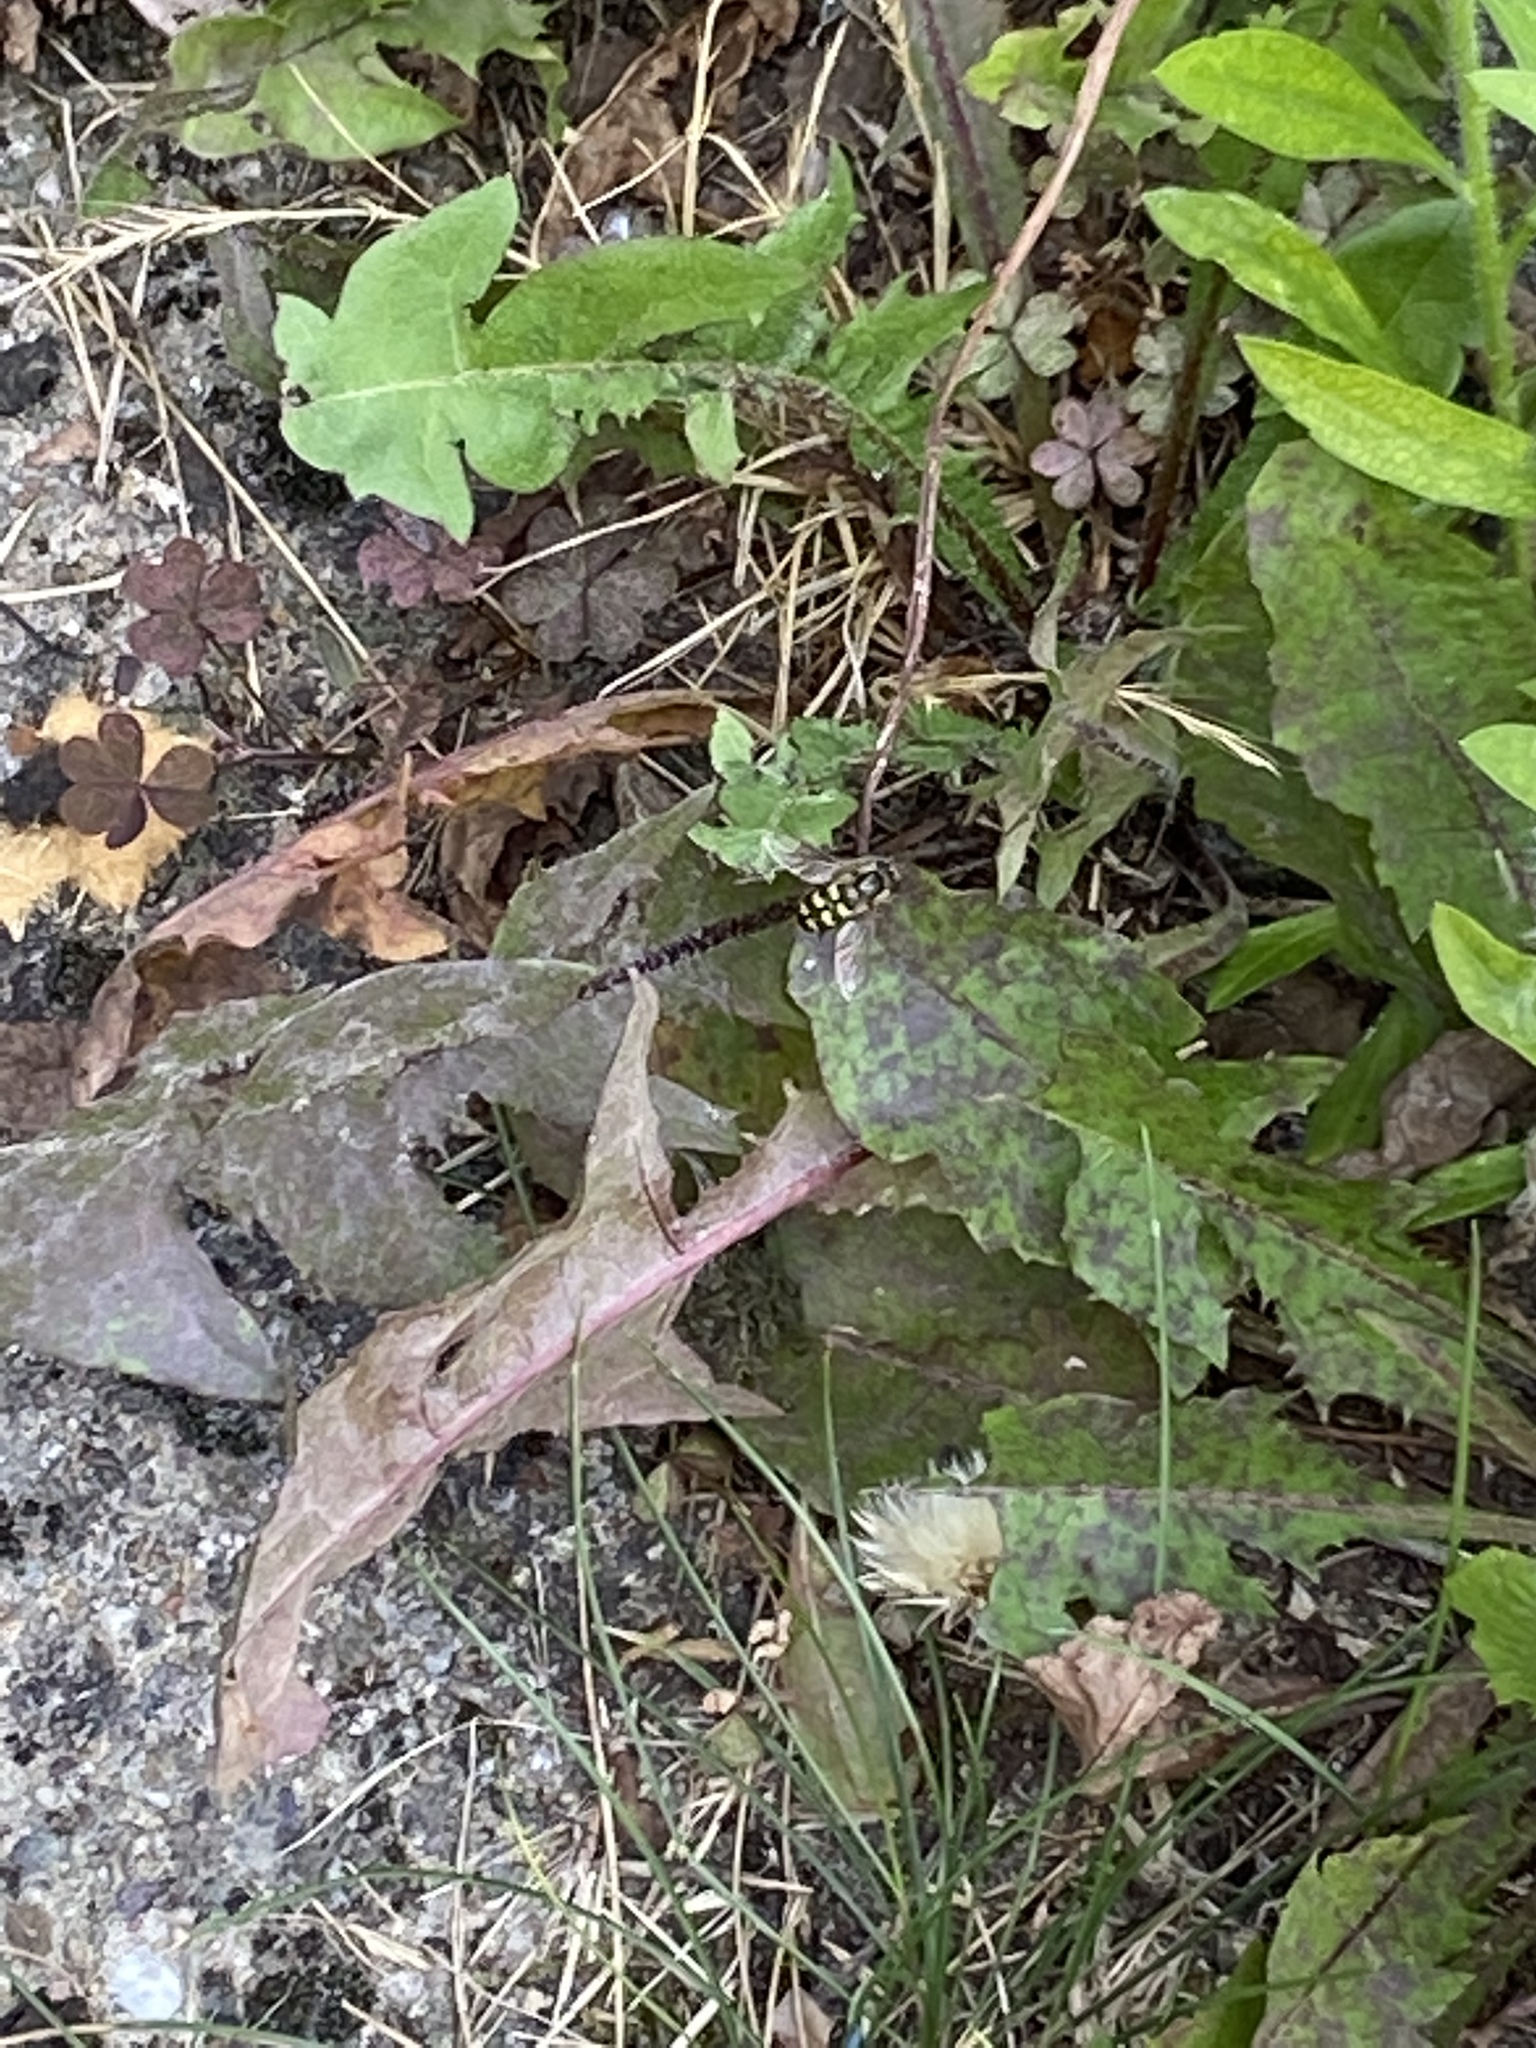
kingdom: Animalia
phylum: Arthropoda
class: Insecta
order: Hymenoptera
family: Vespidae
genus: Vespula
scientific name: Vespula vulgaris
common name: Common wasp
